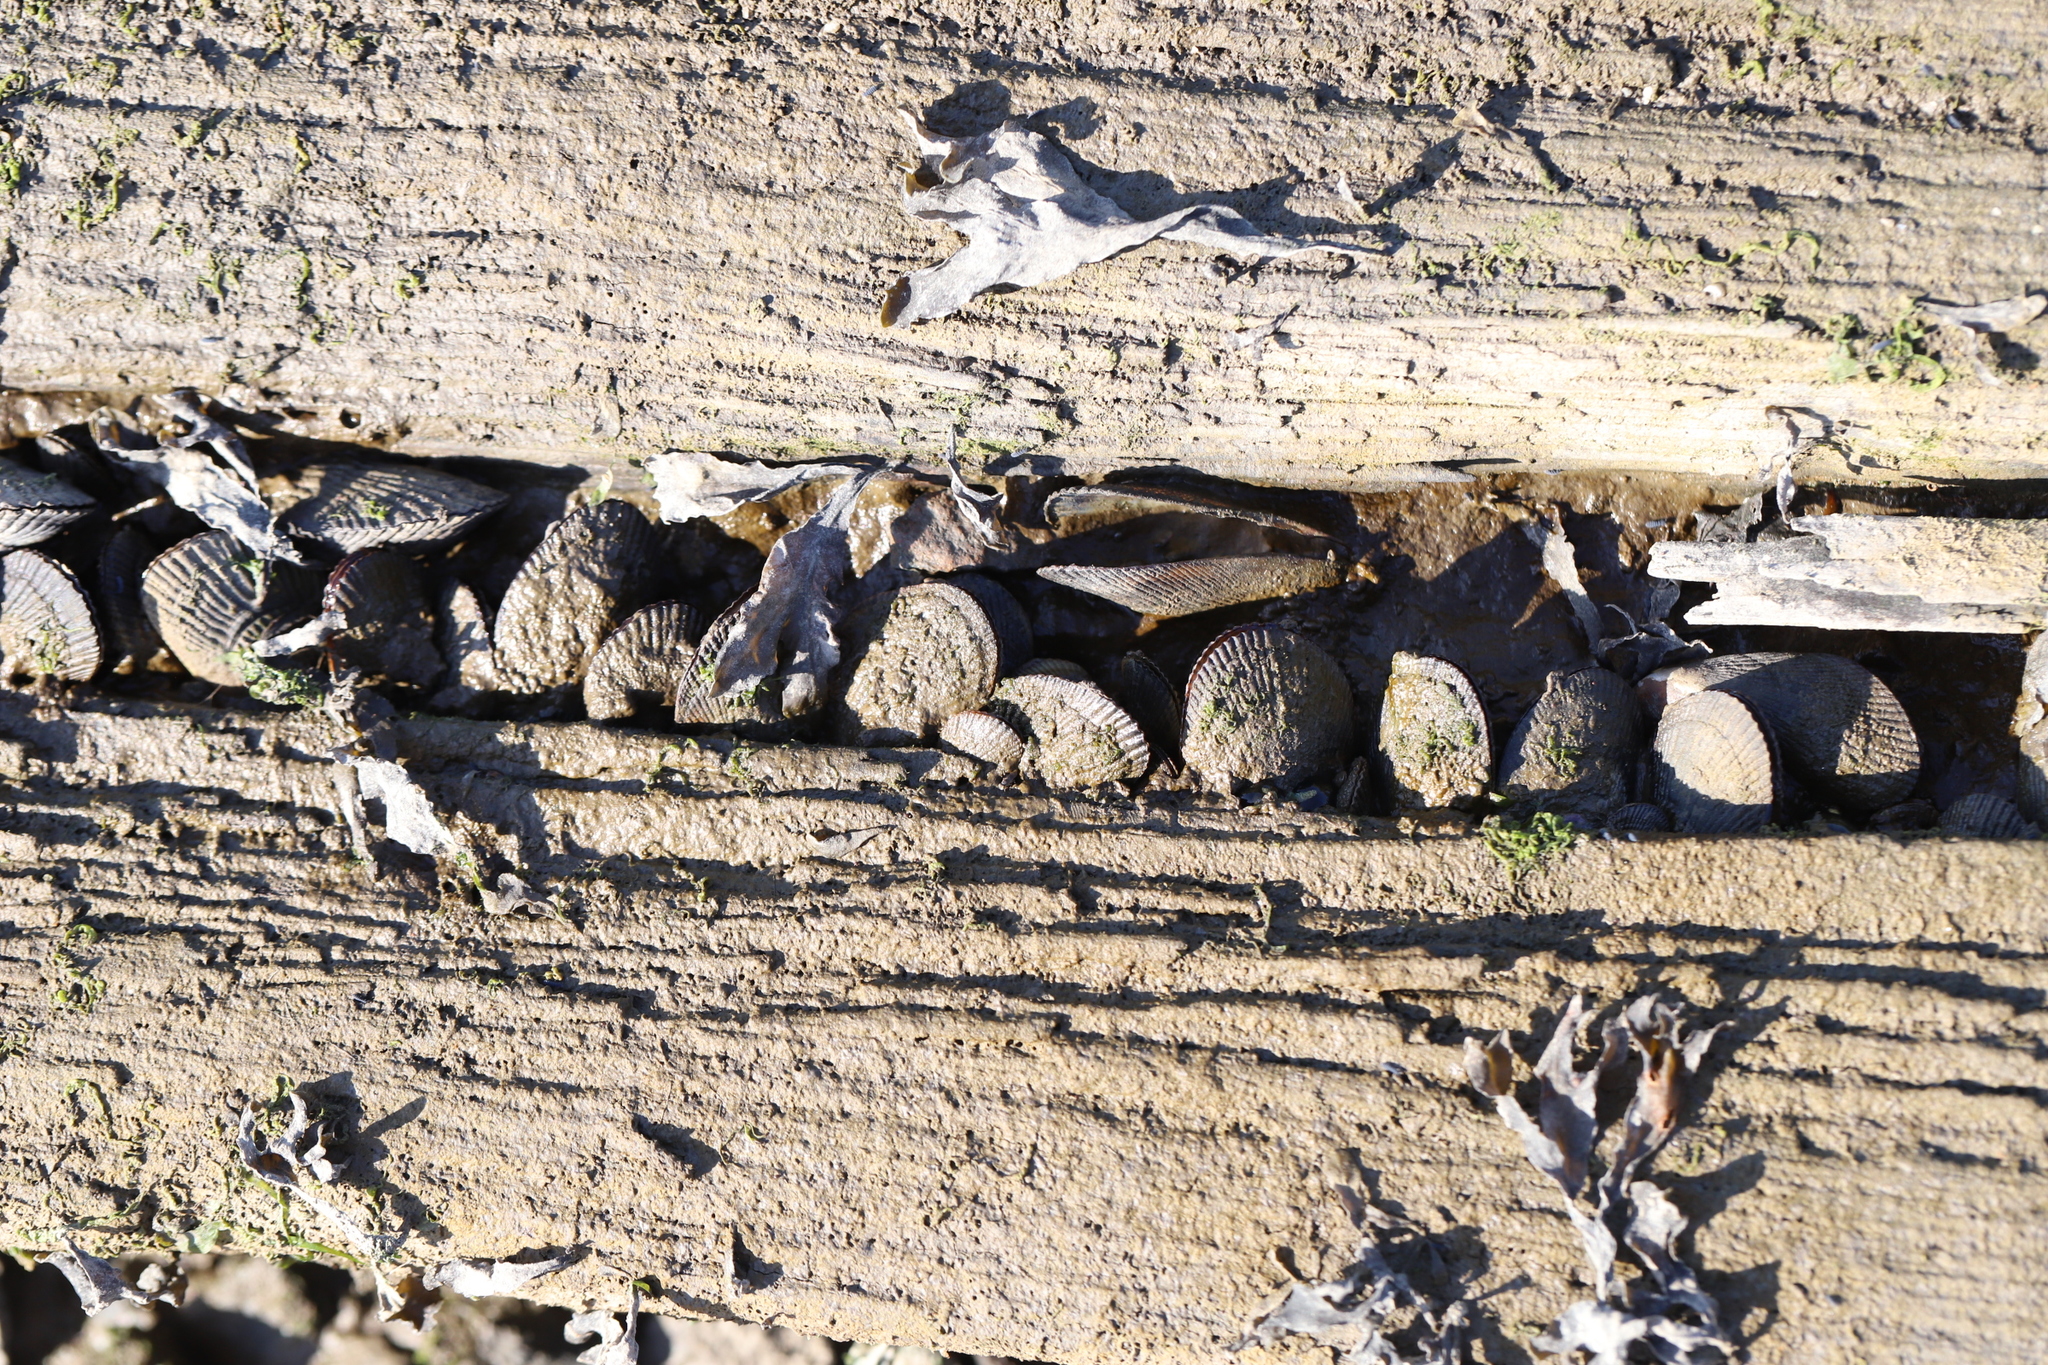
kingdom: Animalia
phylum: Mollusca
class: Bivalvia
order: Mytilida
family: Mytilidae
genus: Geukensia
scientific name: Geukensia demissa
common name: Ribbed mussel
